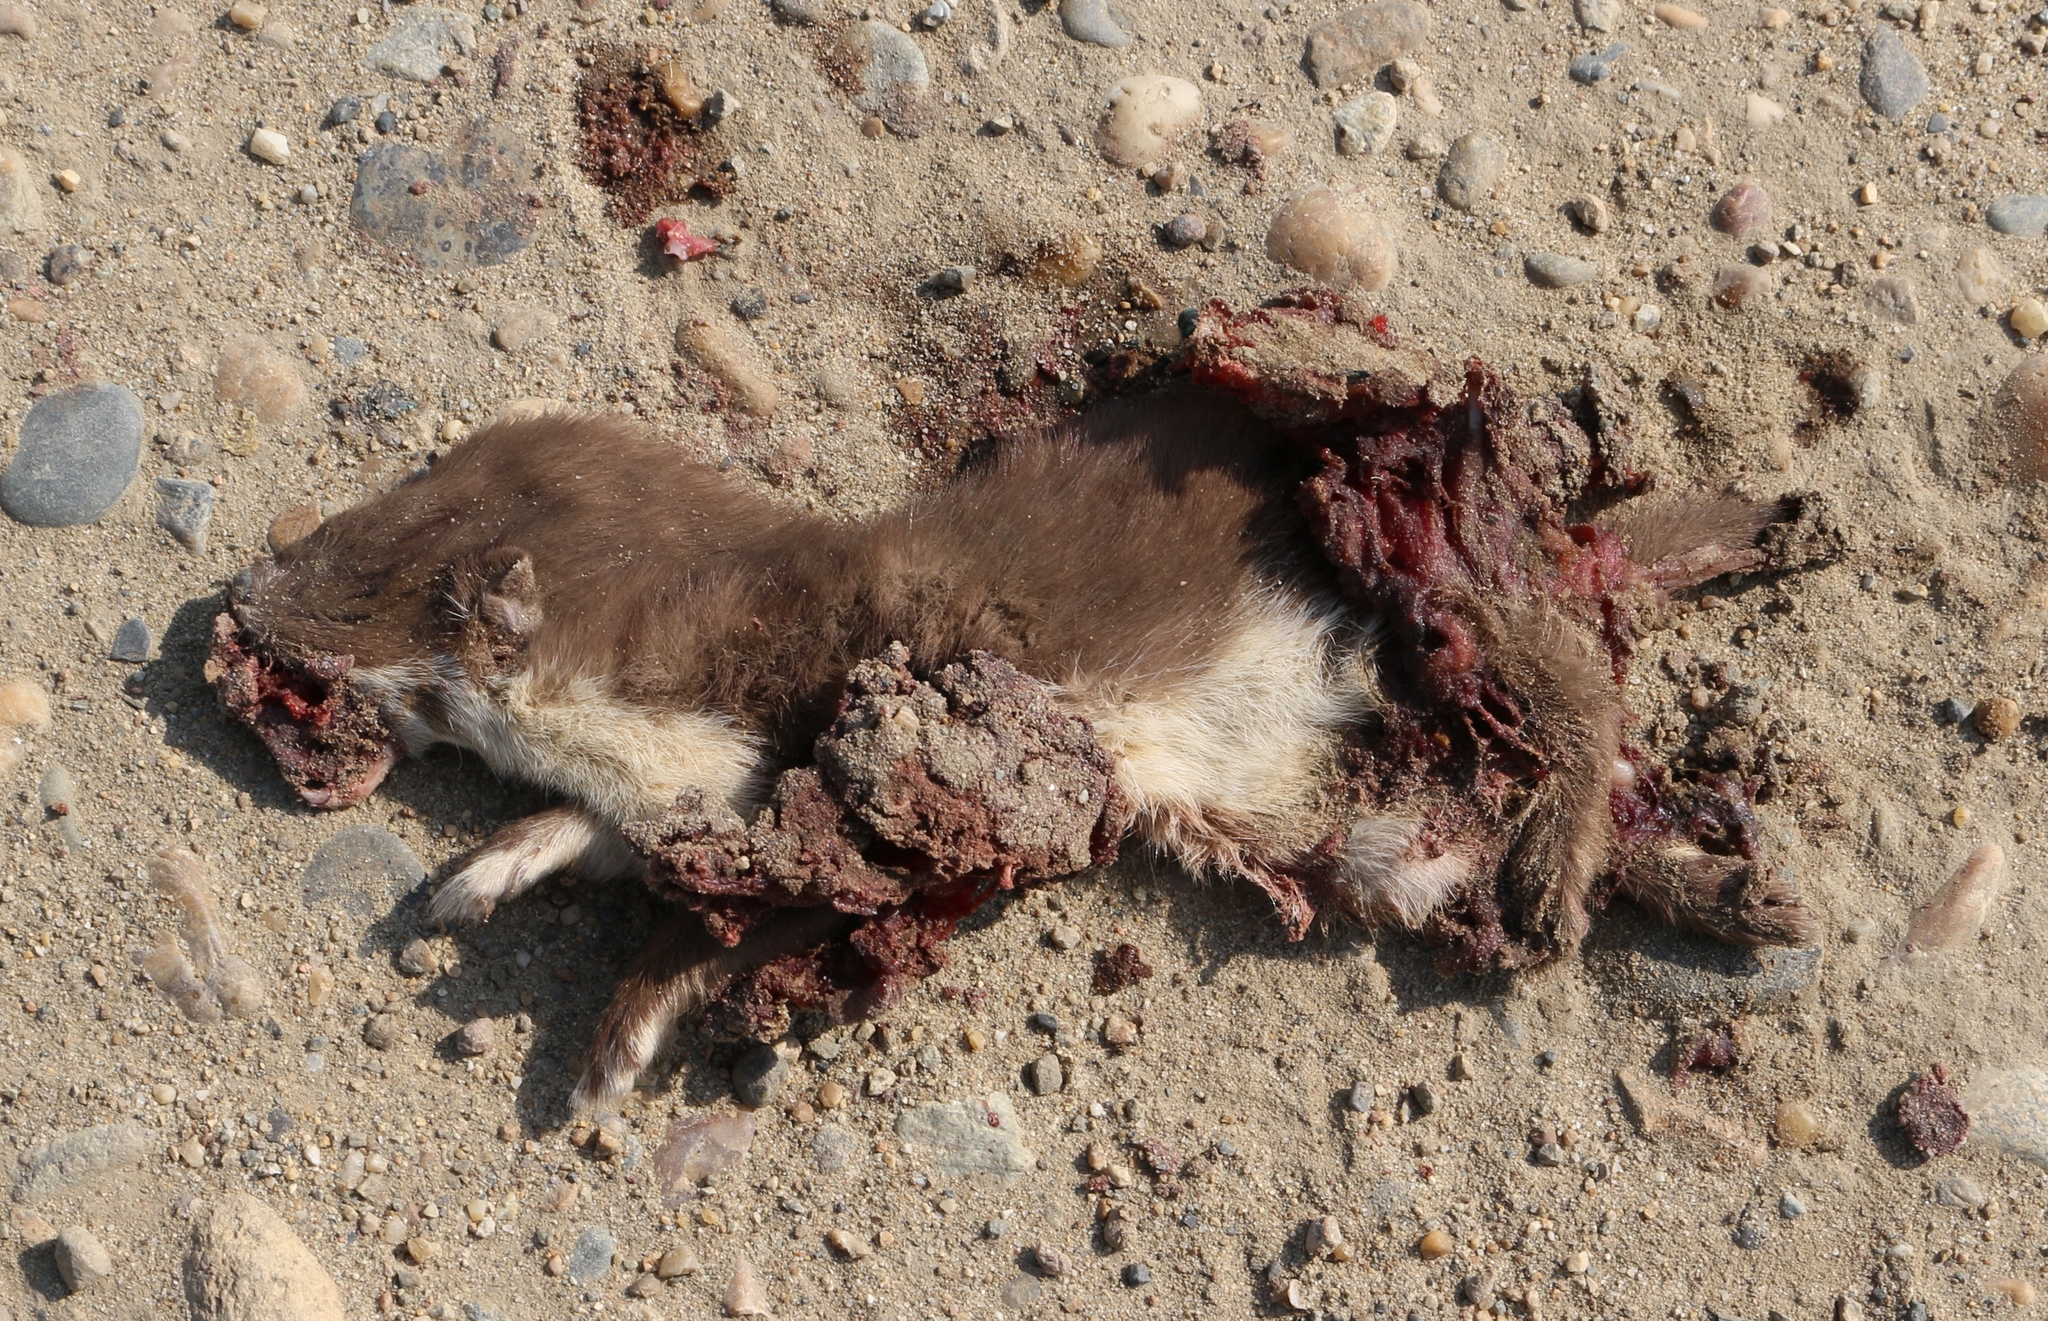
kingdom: Animalia
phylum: Chordata
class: Mammalia
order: Carnivora
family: Mustelidae
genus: Mustela
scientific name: Mustela nivalis
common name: Least weasel
